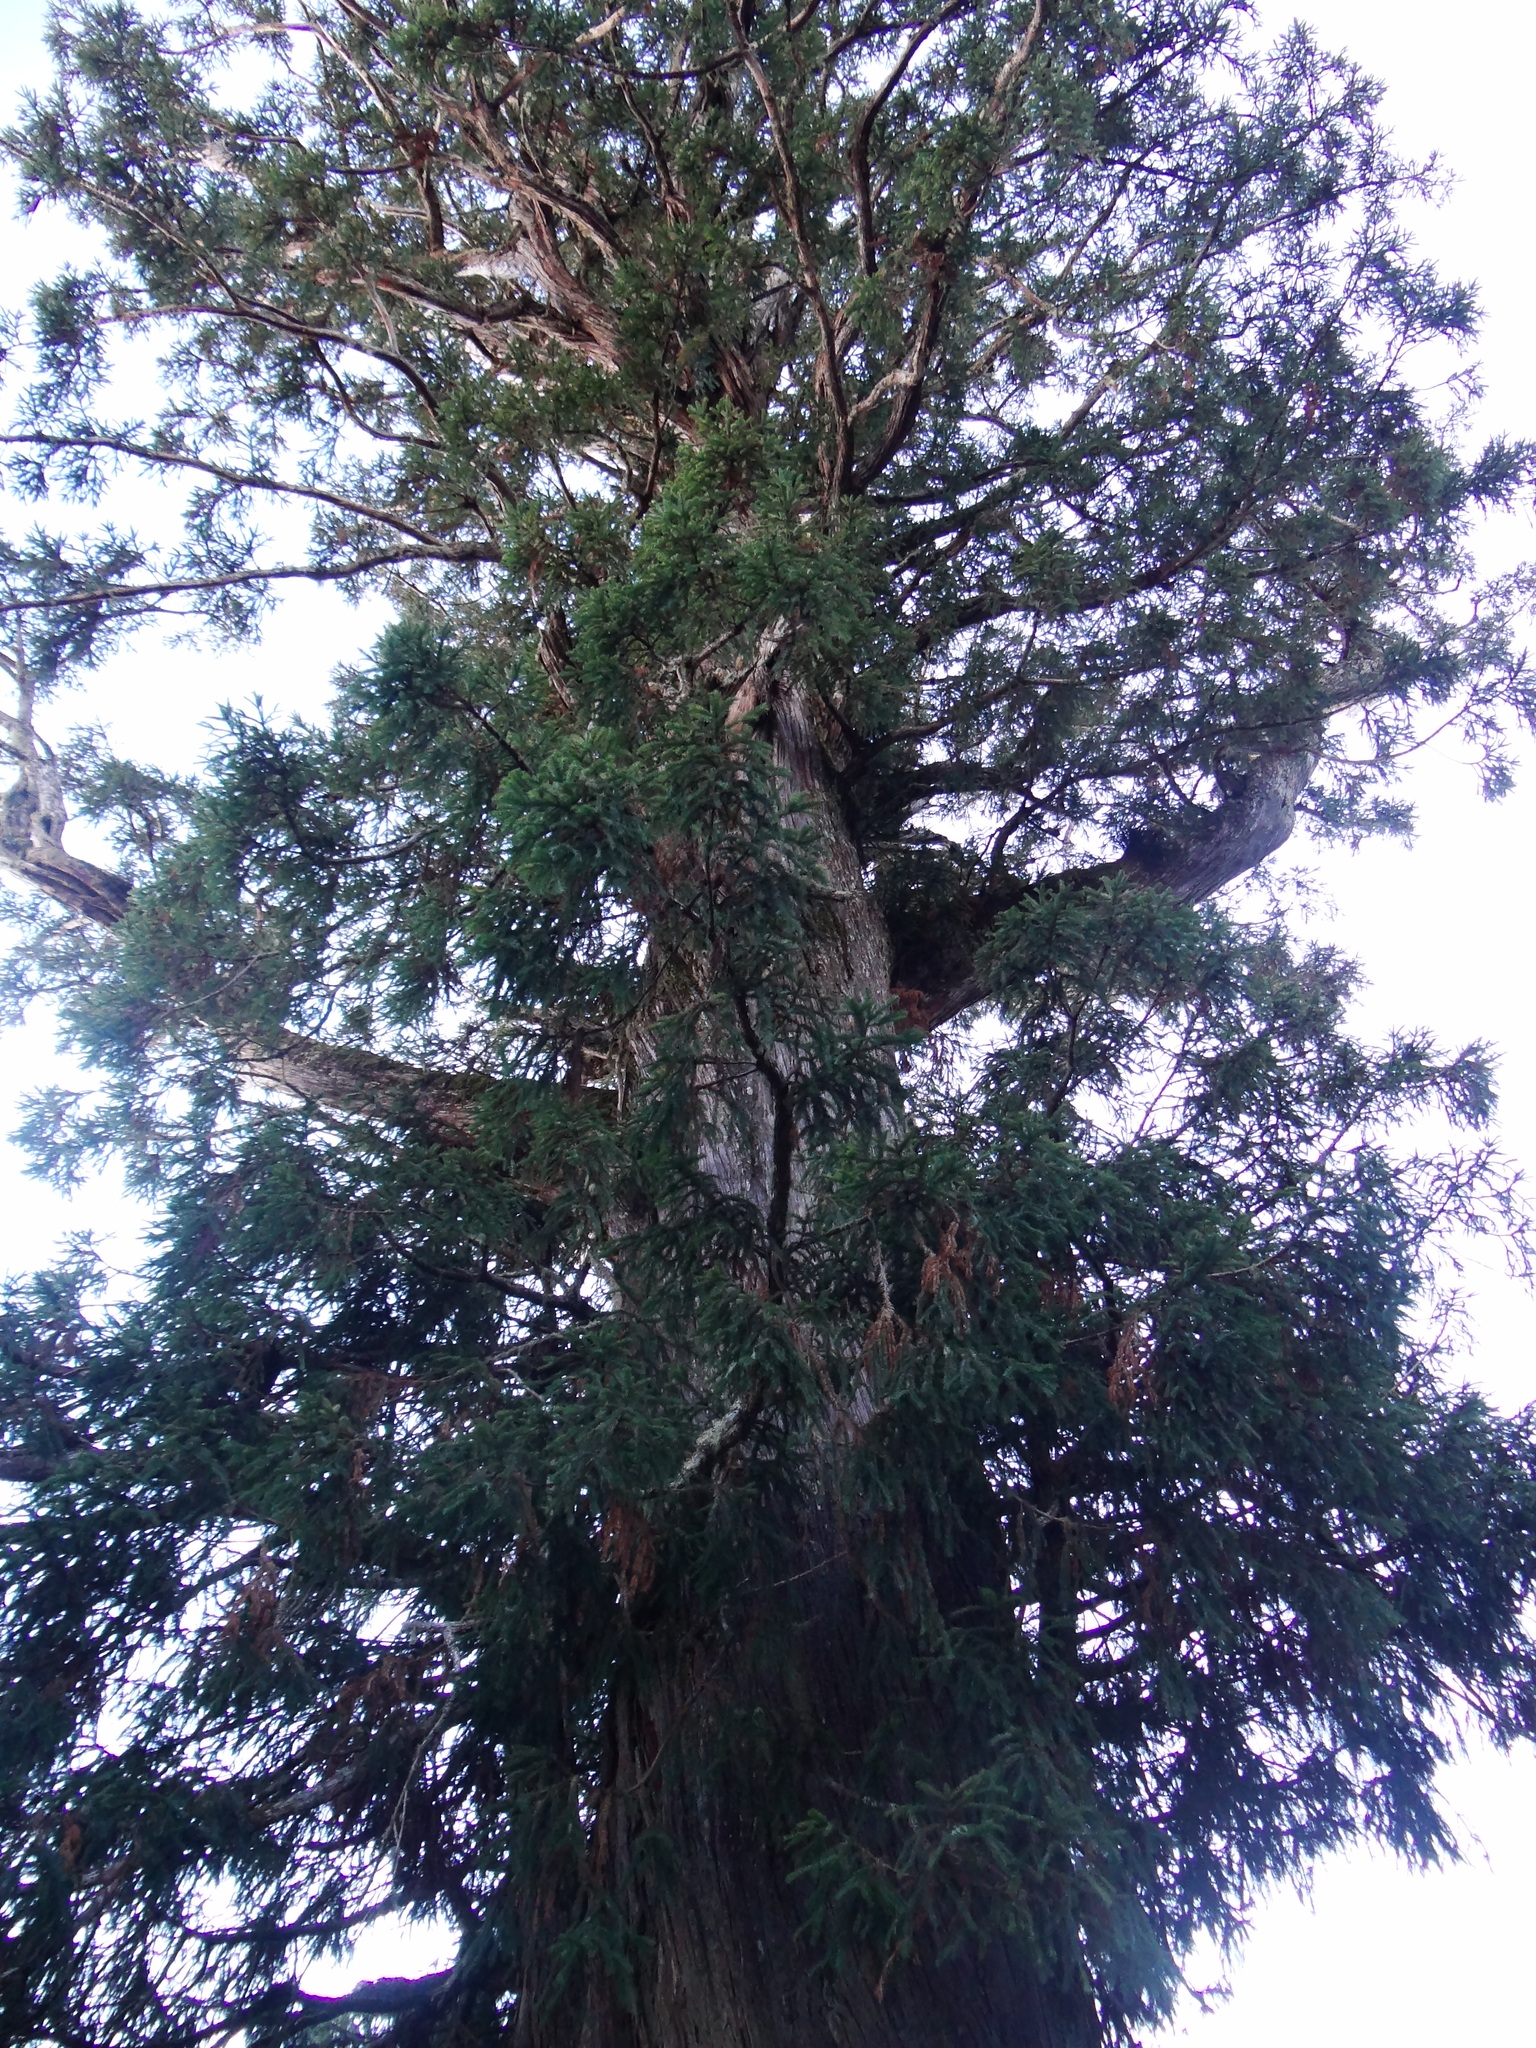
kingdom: Plantae
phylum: Tracheophyta
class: Pinopsida
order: Pinales
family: Cupressaceae
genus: Cunninghamia
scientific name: Cunninghamia konishii
